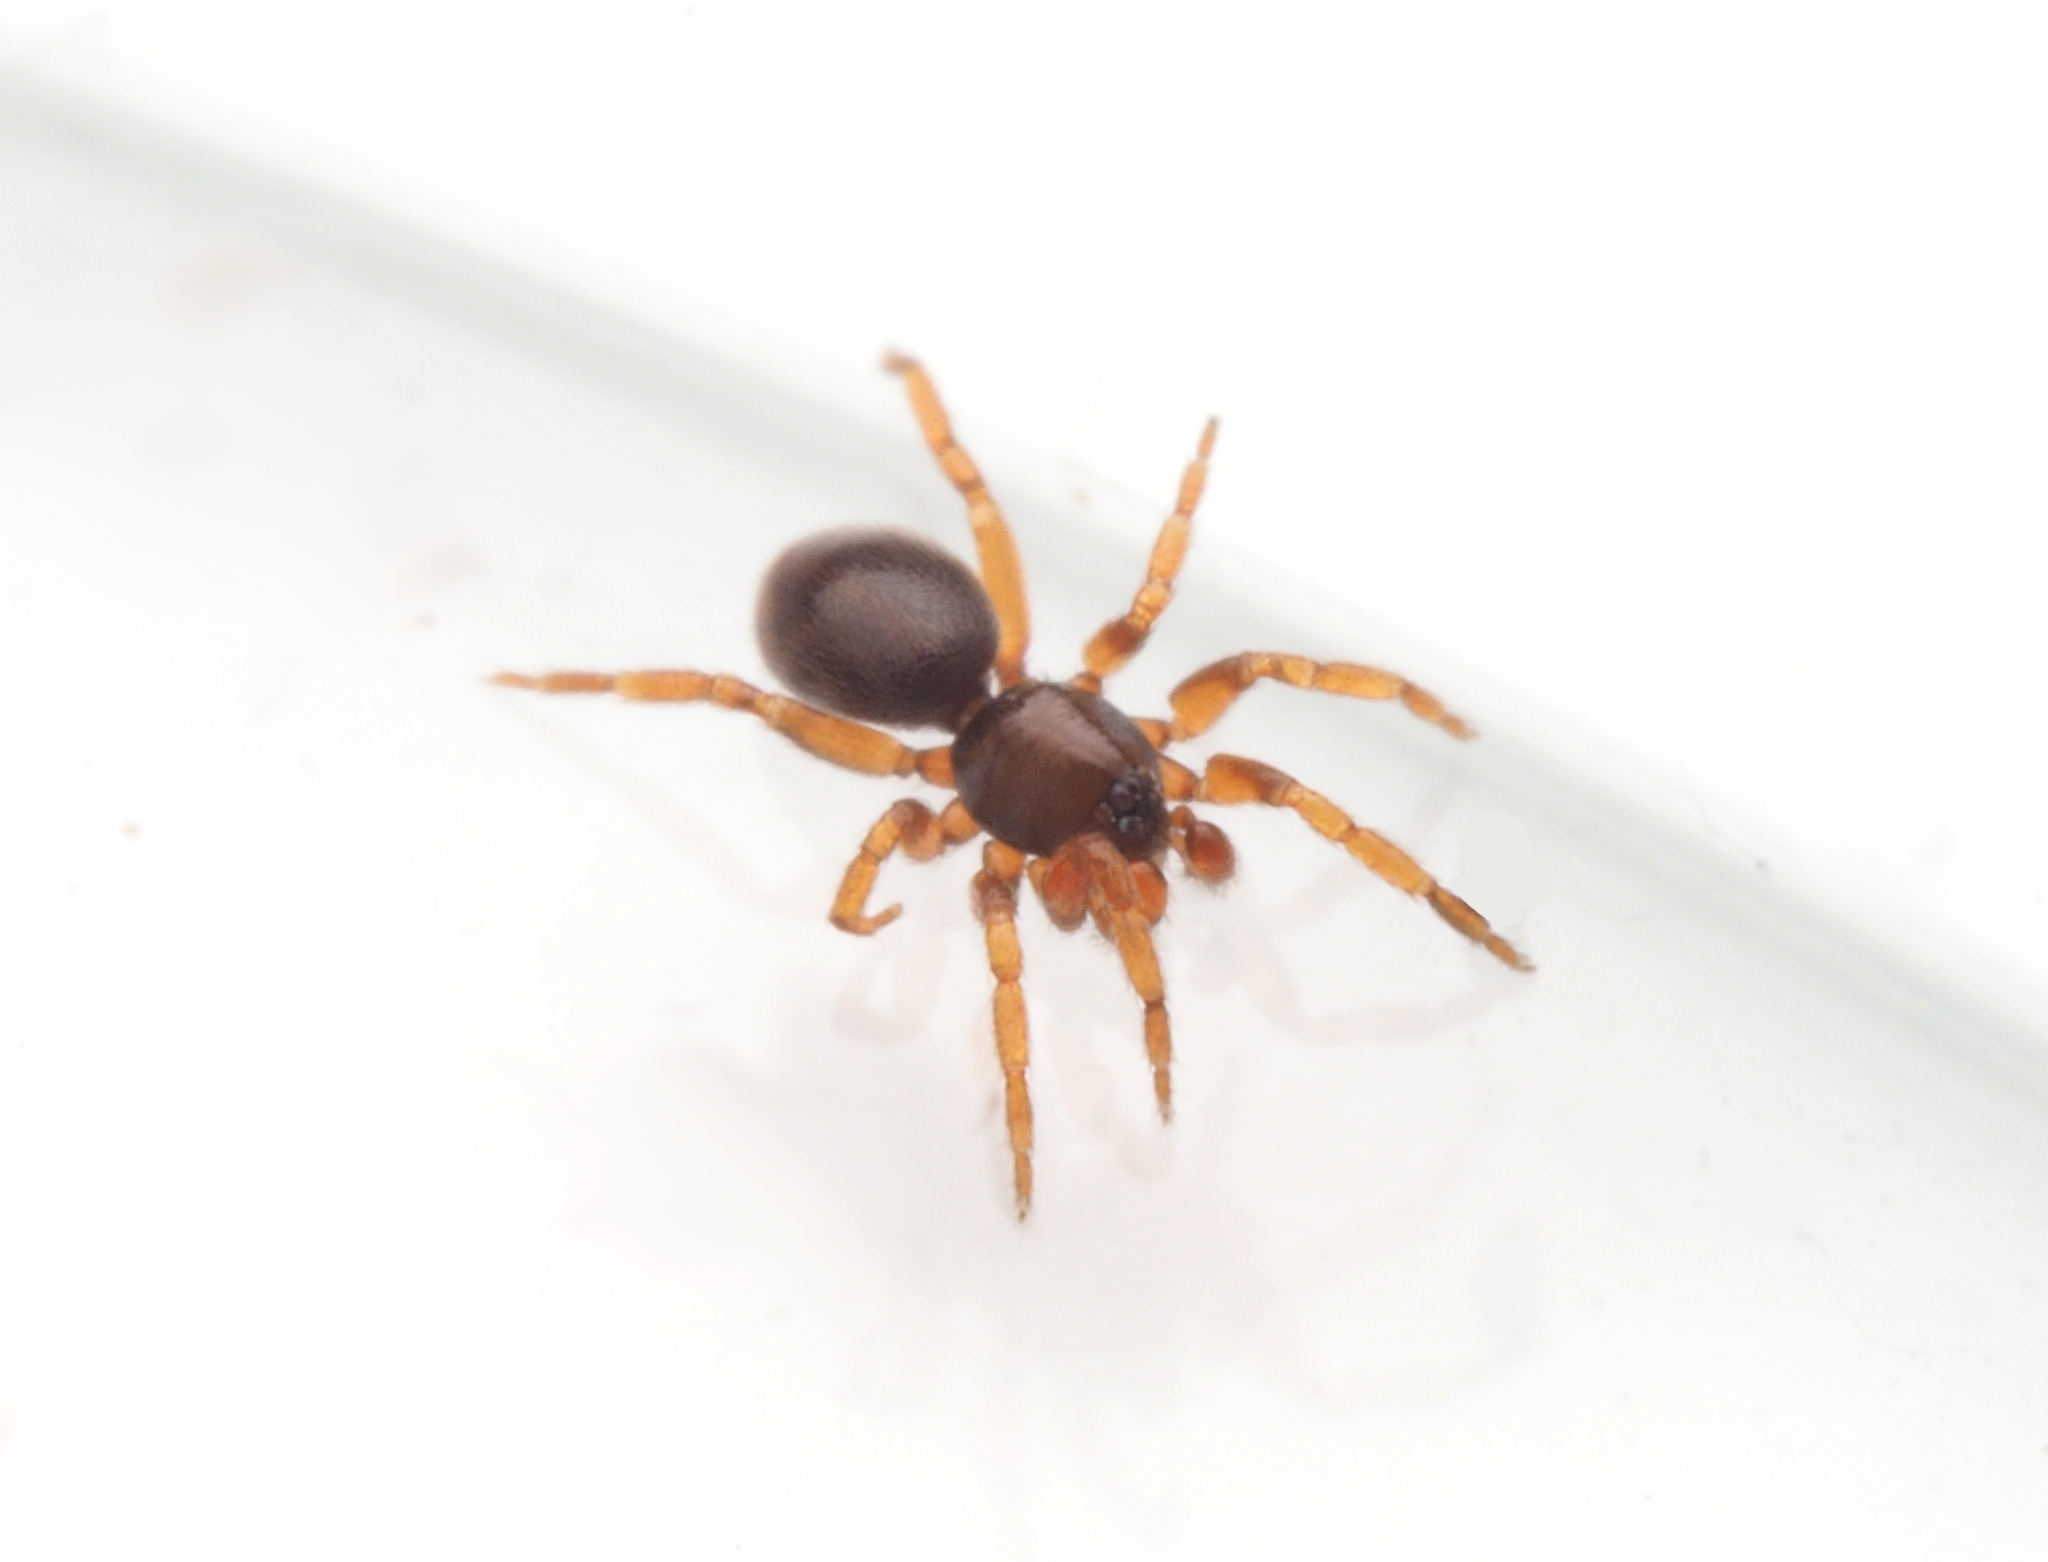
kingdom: Animalia
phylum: Arthropoda
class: Arachnida
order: Araneae
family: Oonopidae
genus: Opopaea
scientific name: Opopaea
